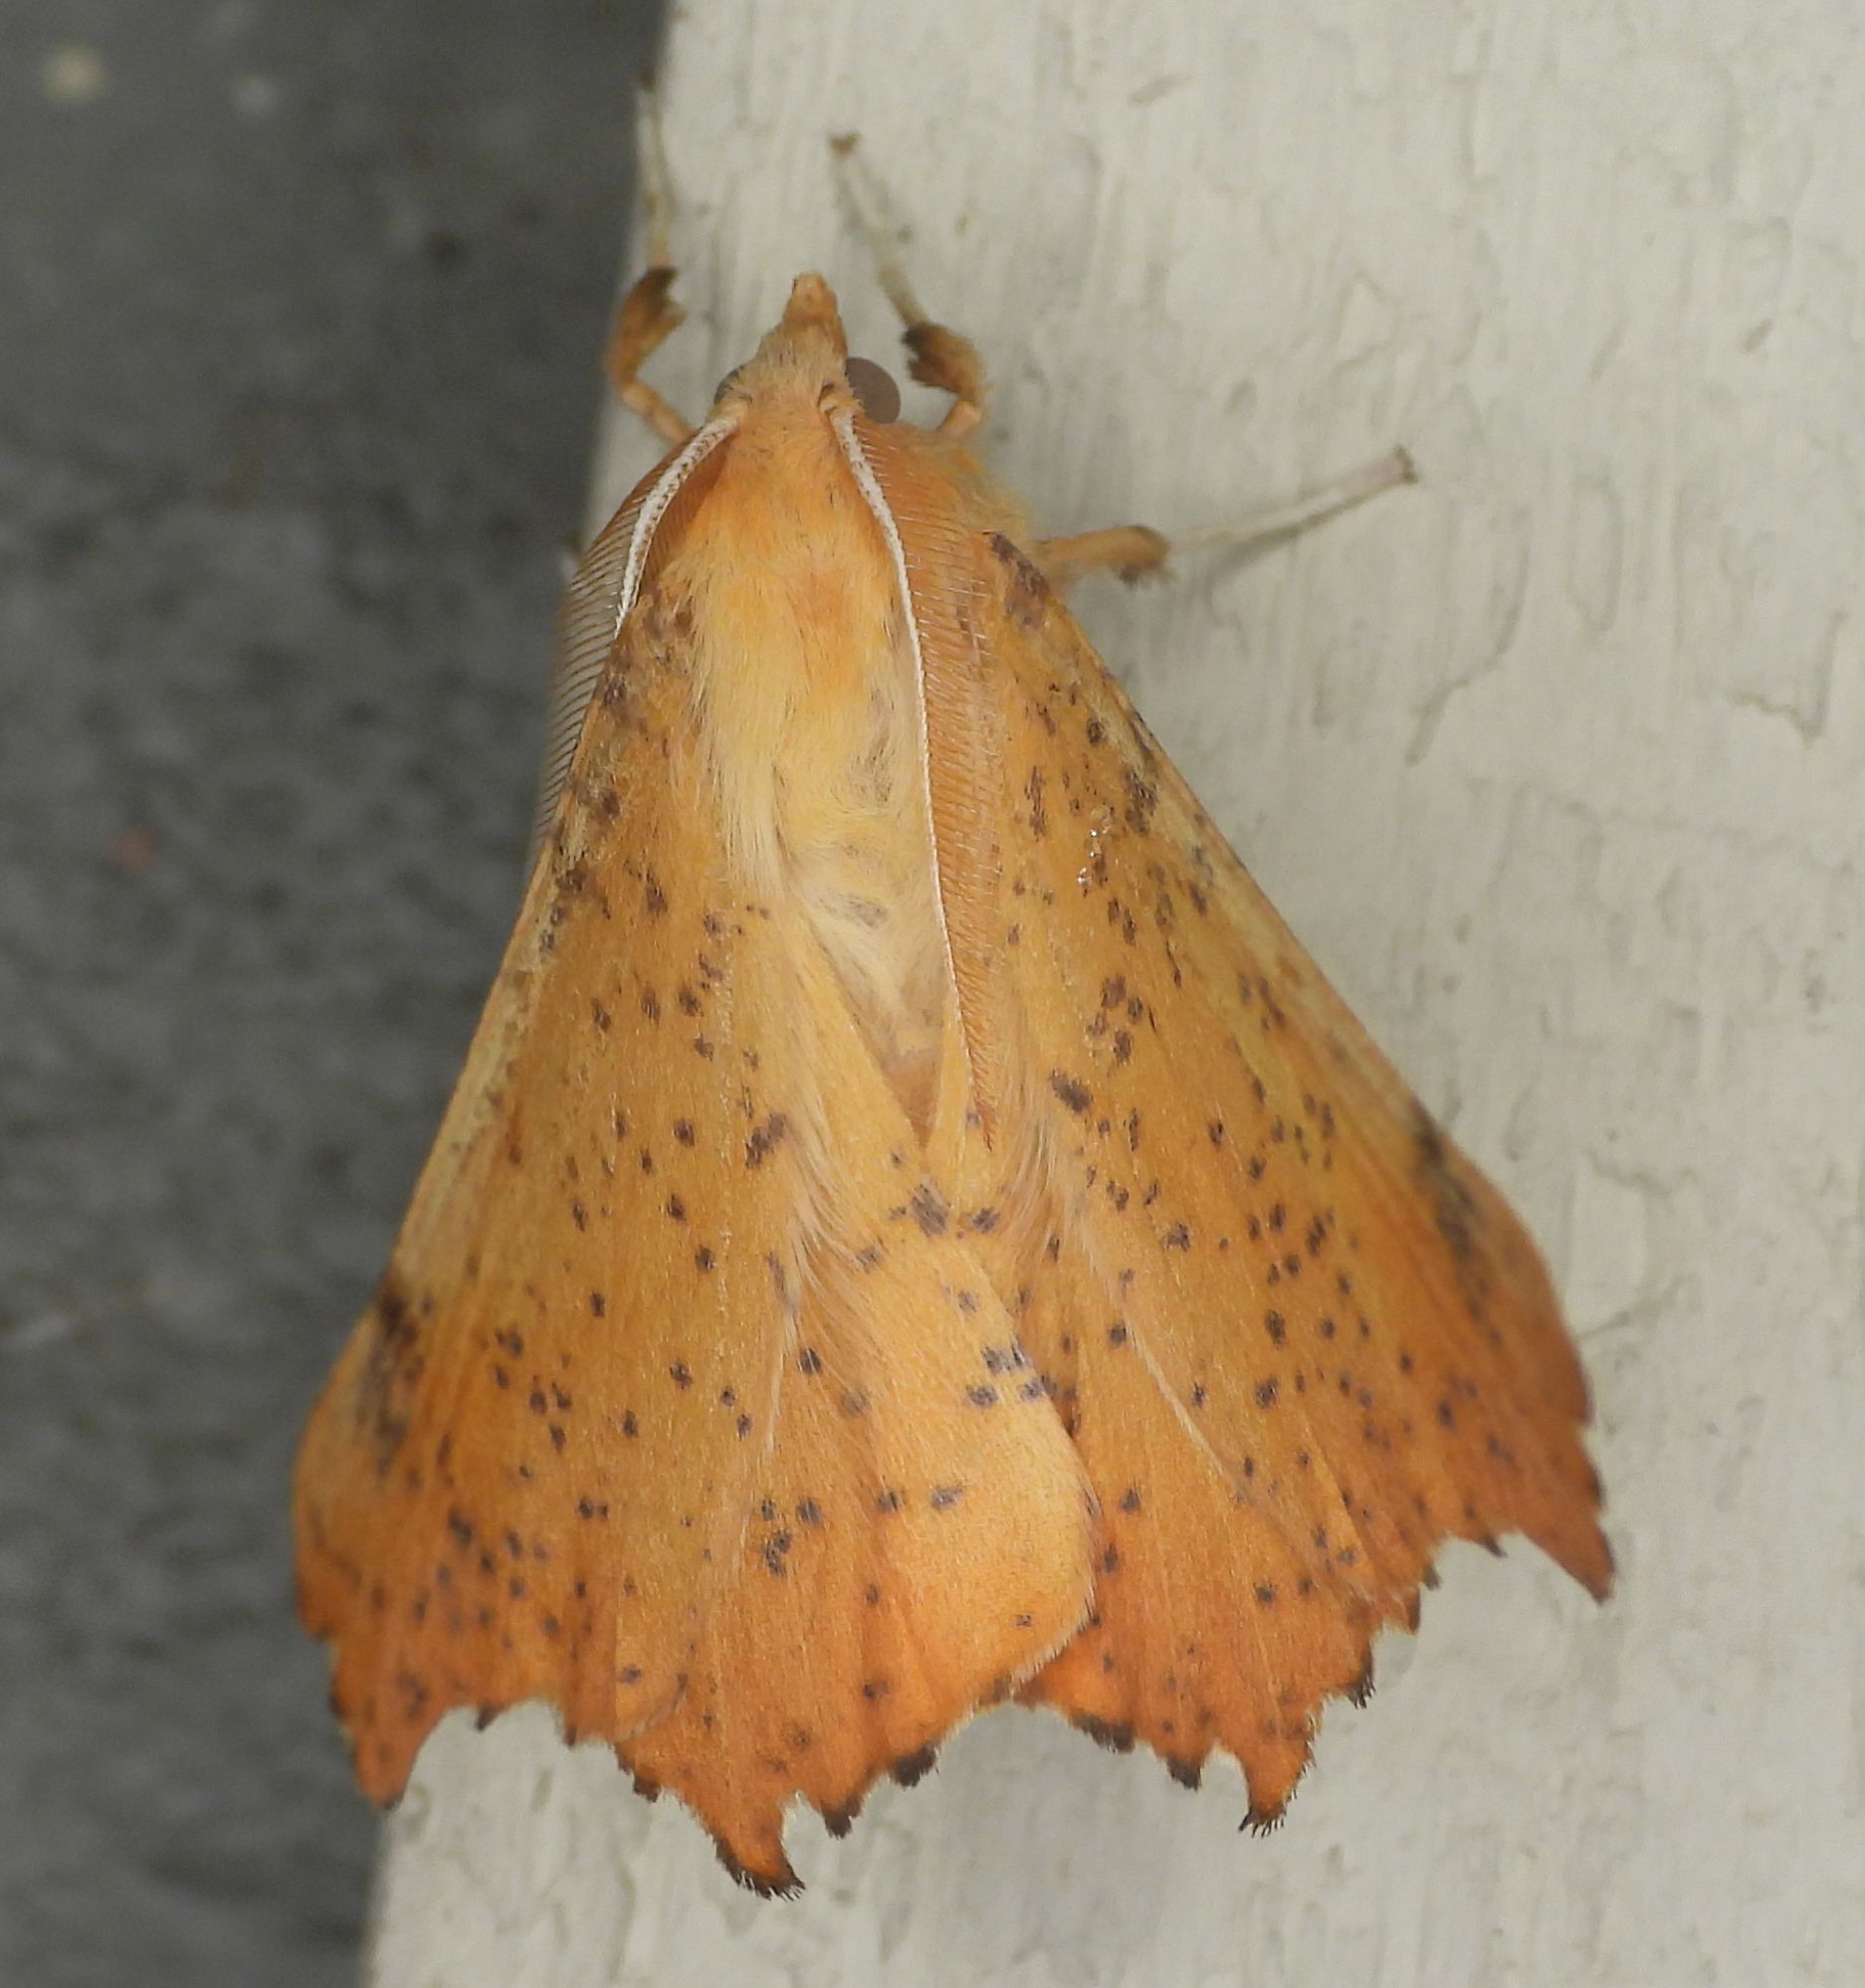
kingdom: Animalia
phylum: Arthropoda
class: Insecta
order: Lepidoptera
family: Geometridae
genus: Ennomos
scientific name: Ennomos magnaria
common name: Maple spanworm
